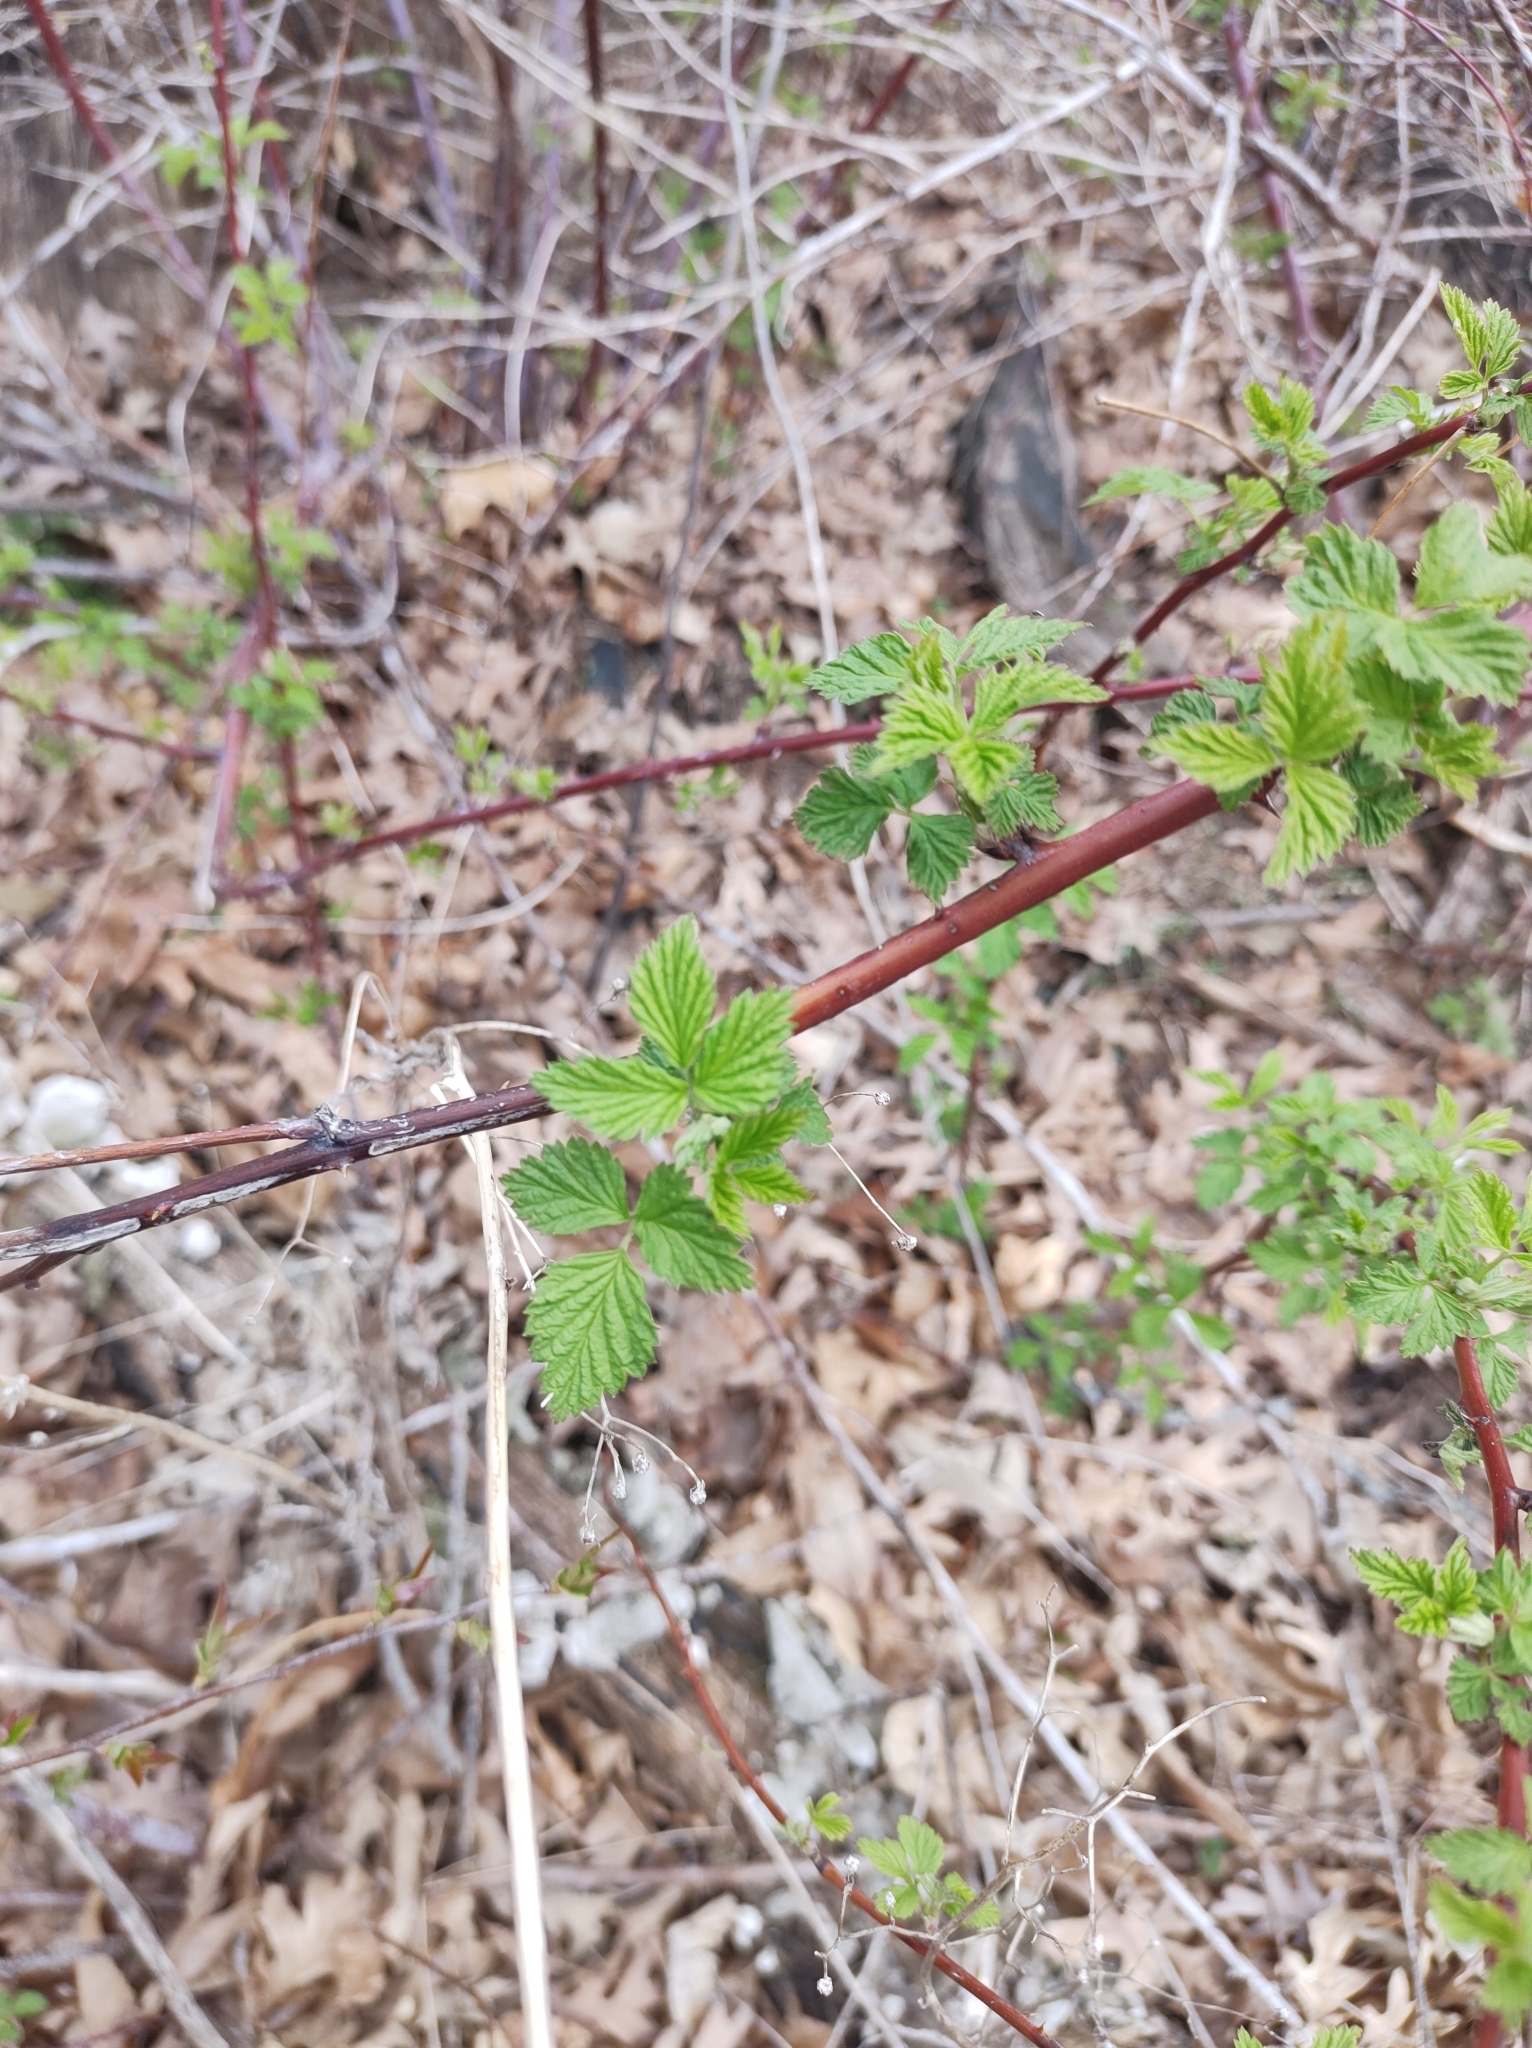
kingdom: Plantae
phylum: Tracheophyta
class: Magnoliopsida
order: Rosales
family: Rosaceae
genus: Rubus
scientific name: Rubus occidentalis
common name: Black raspberry
